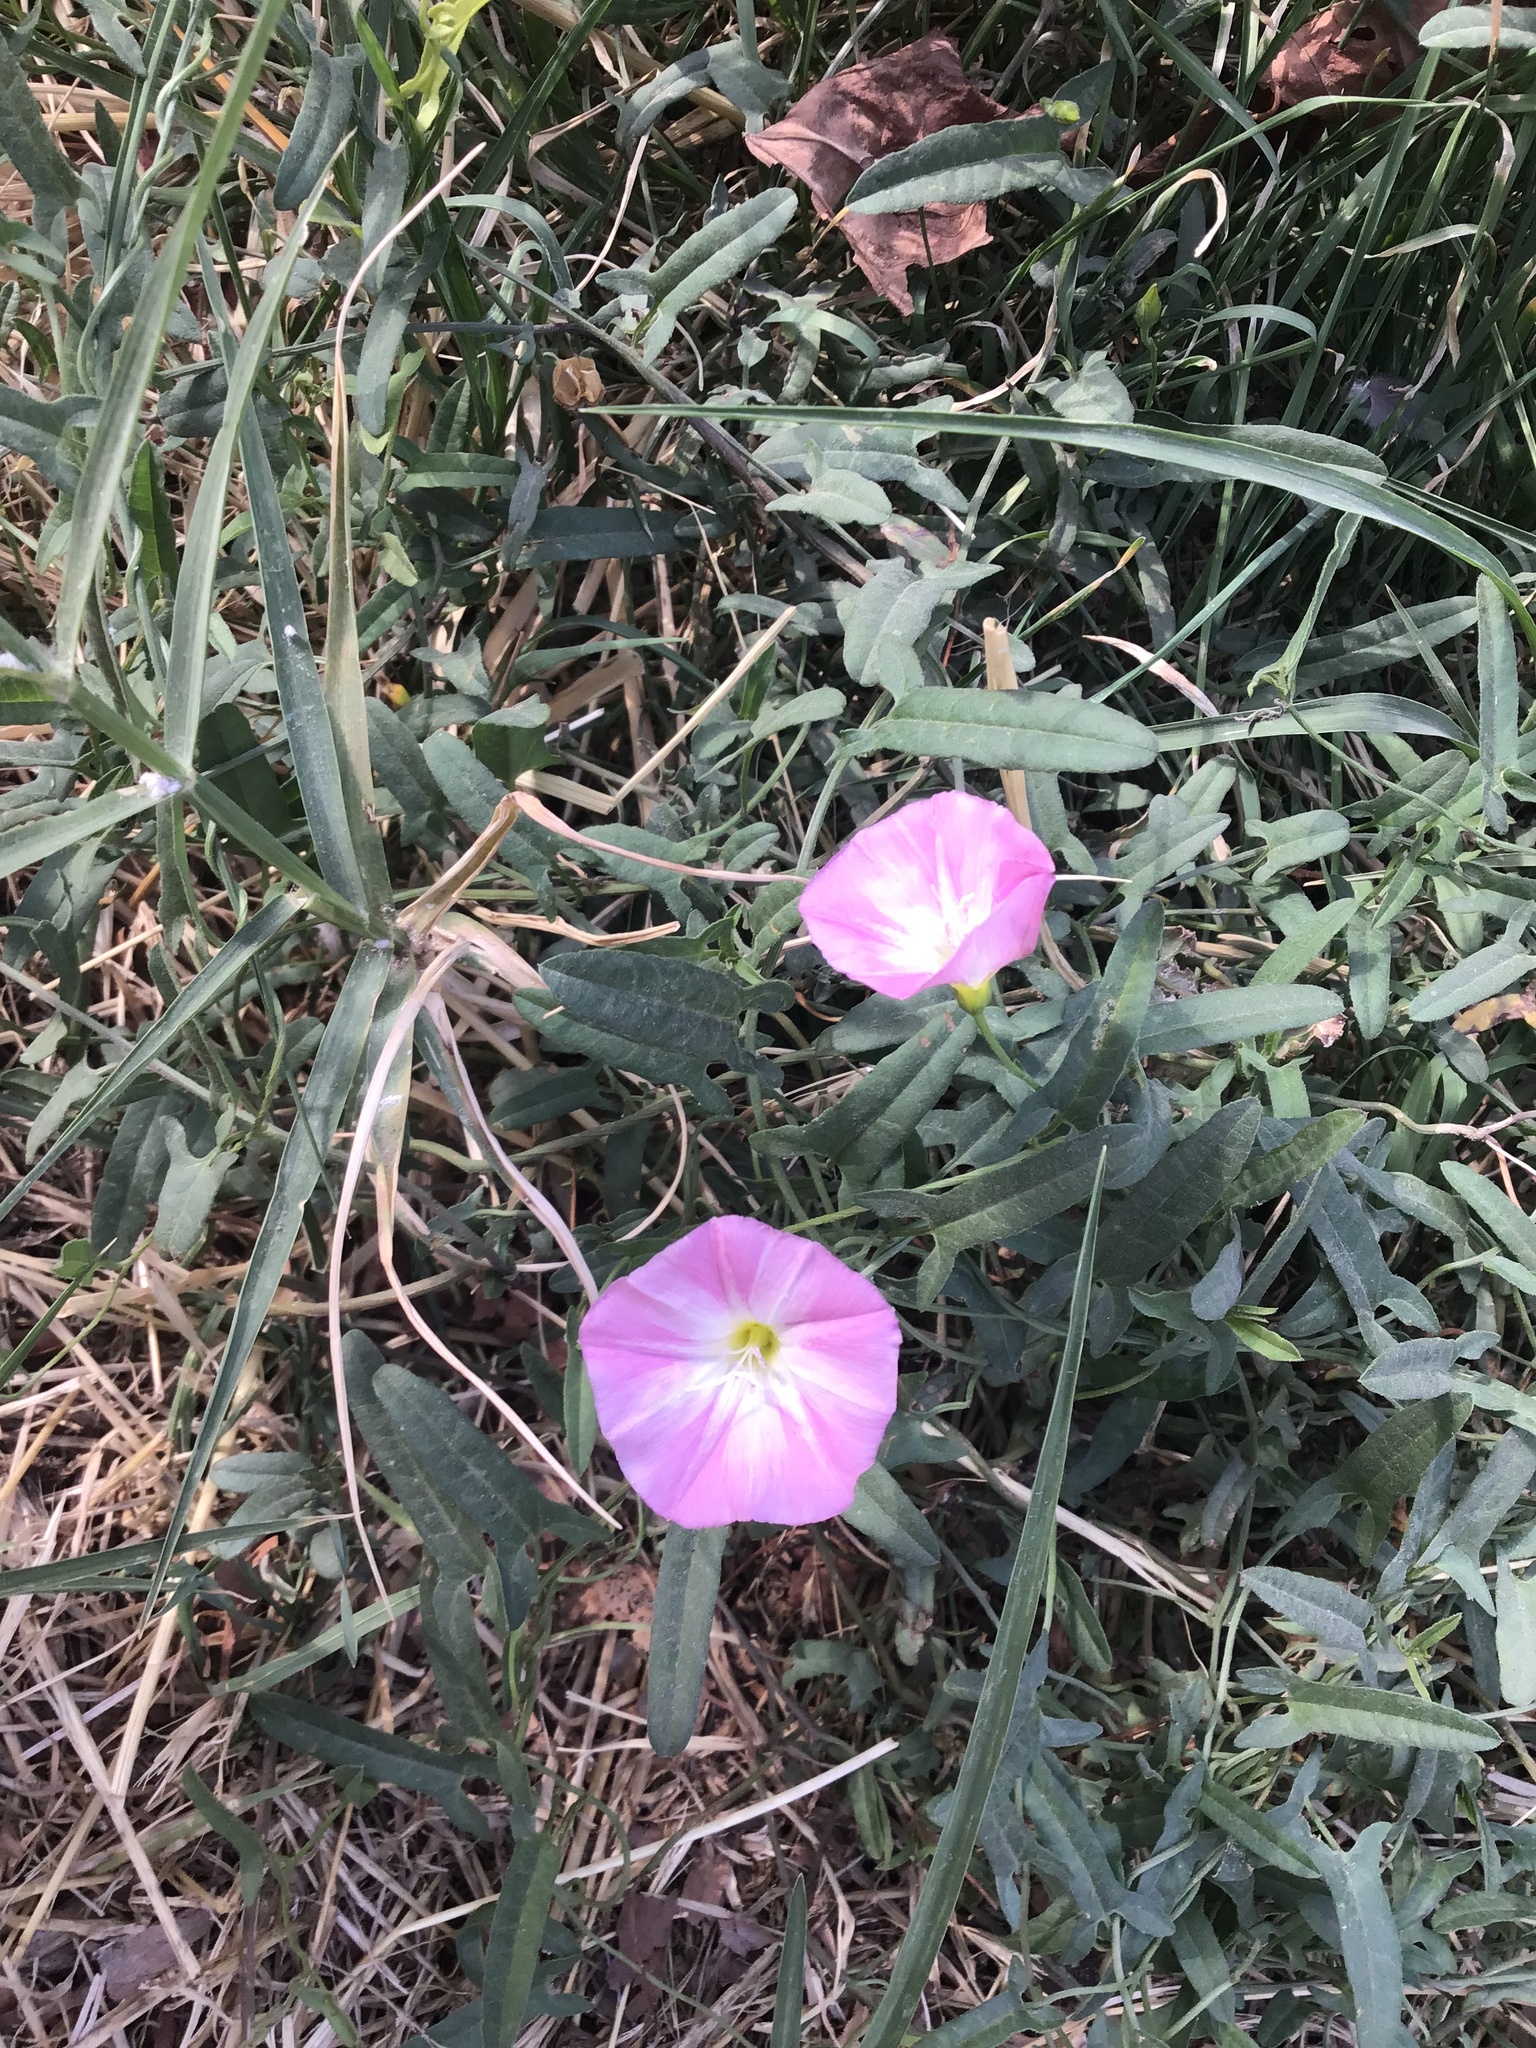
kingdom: Plantae
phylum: Tracheophyta
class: Magnoliopsida
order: Solanales
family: Convolvulaceae
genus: Convolvulus
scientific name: Convolvulus arvensis
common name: Field bindweed
